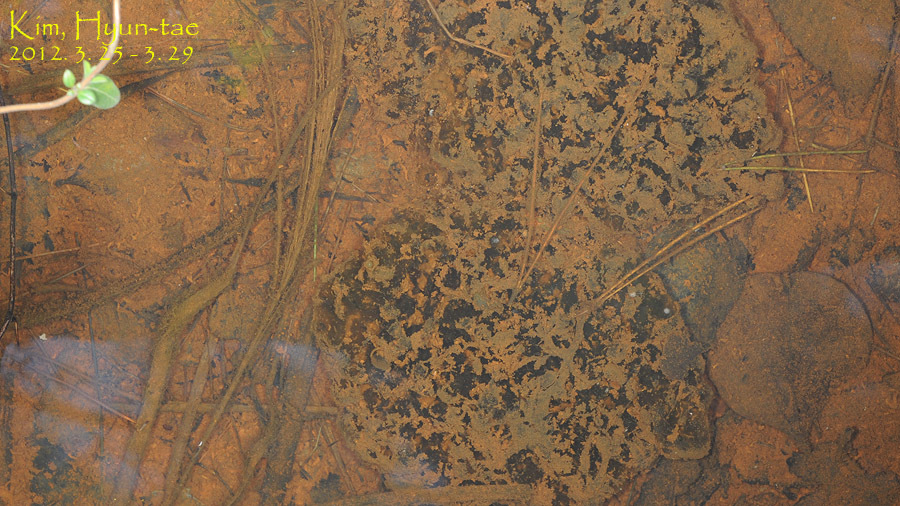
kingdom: Animalia
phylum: Chordata
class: Amphibia
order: Anura
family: Ranidae
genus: Rana
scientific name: Rana uenoi
